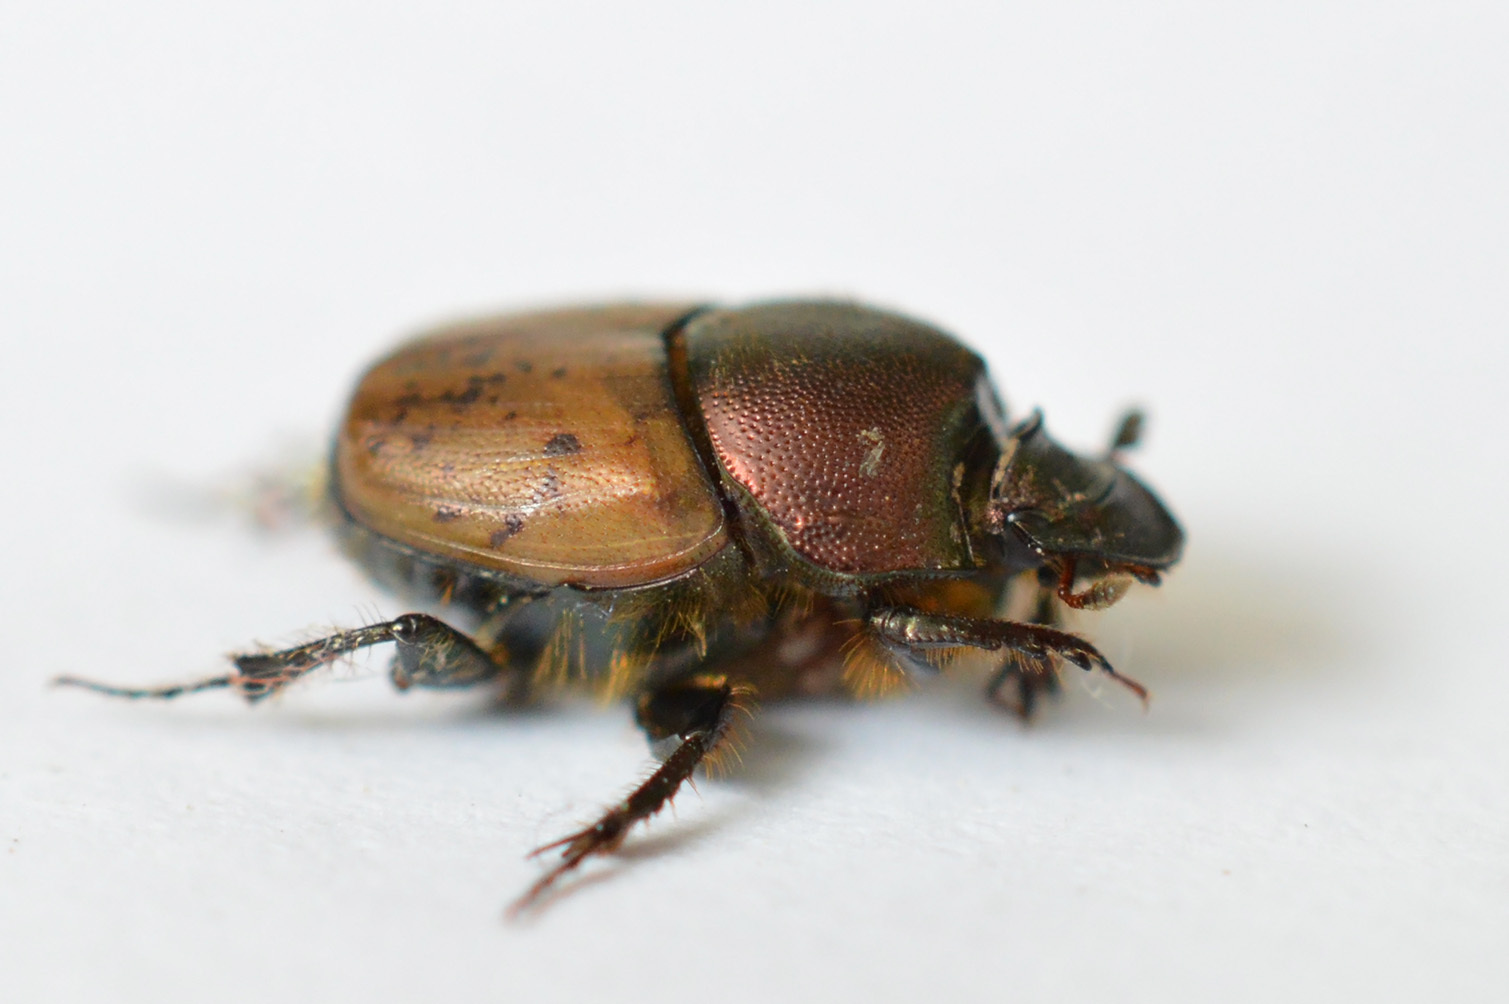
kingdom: Animalia
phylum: Arthropoda
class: Insecta
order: Coleoptera
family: Scarabaeidae
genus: Onthophagus
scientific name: Onthophagus coenobita
